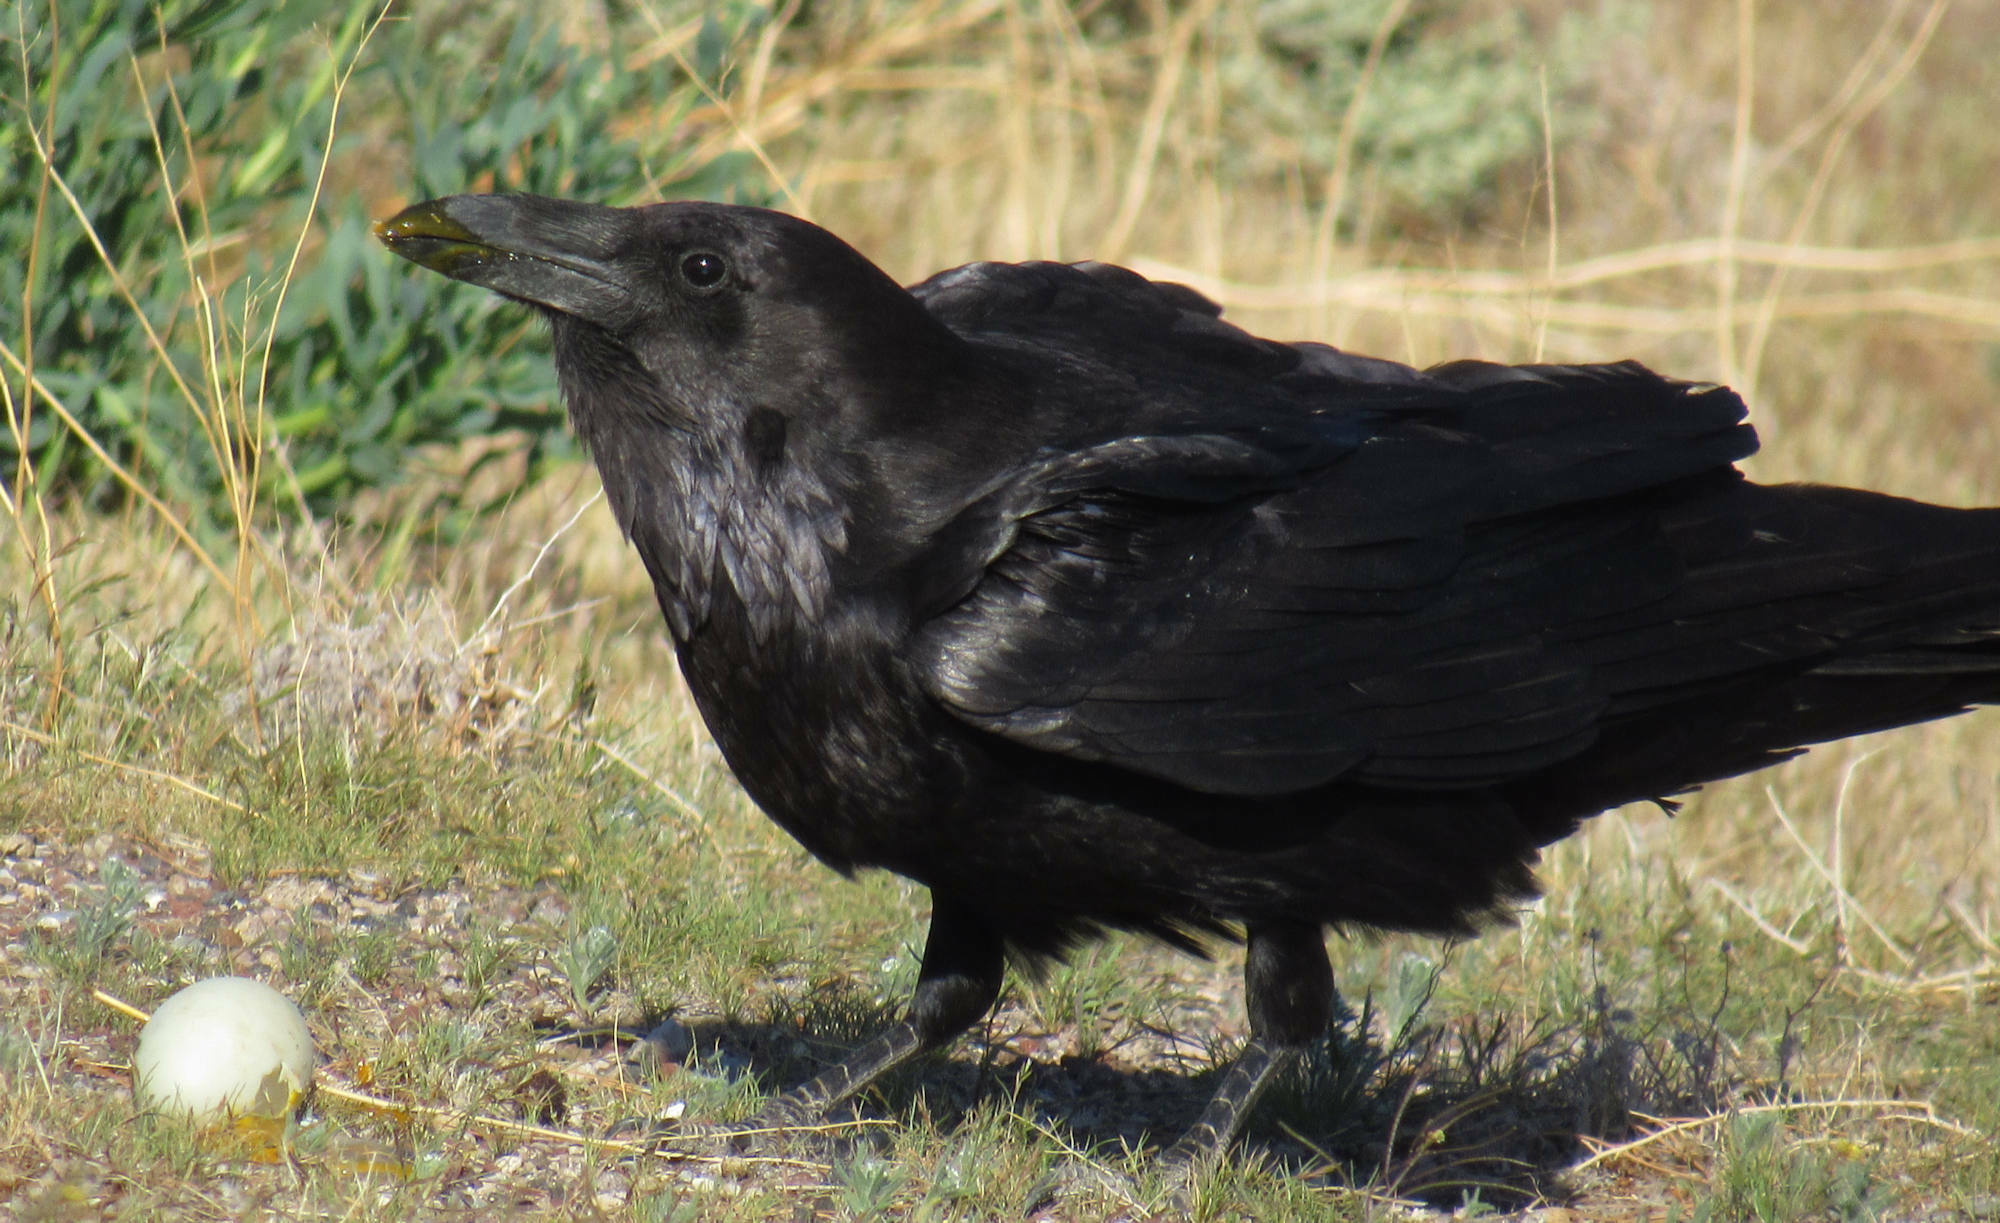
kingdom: Animalia
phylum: Chordata
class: Aves
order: Passeriformes
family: Corvidae
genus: Corvus
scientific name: Corvus corax
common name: Common raven
